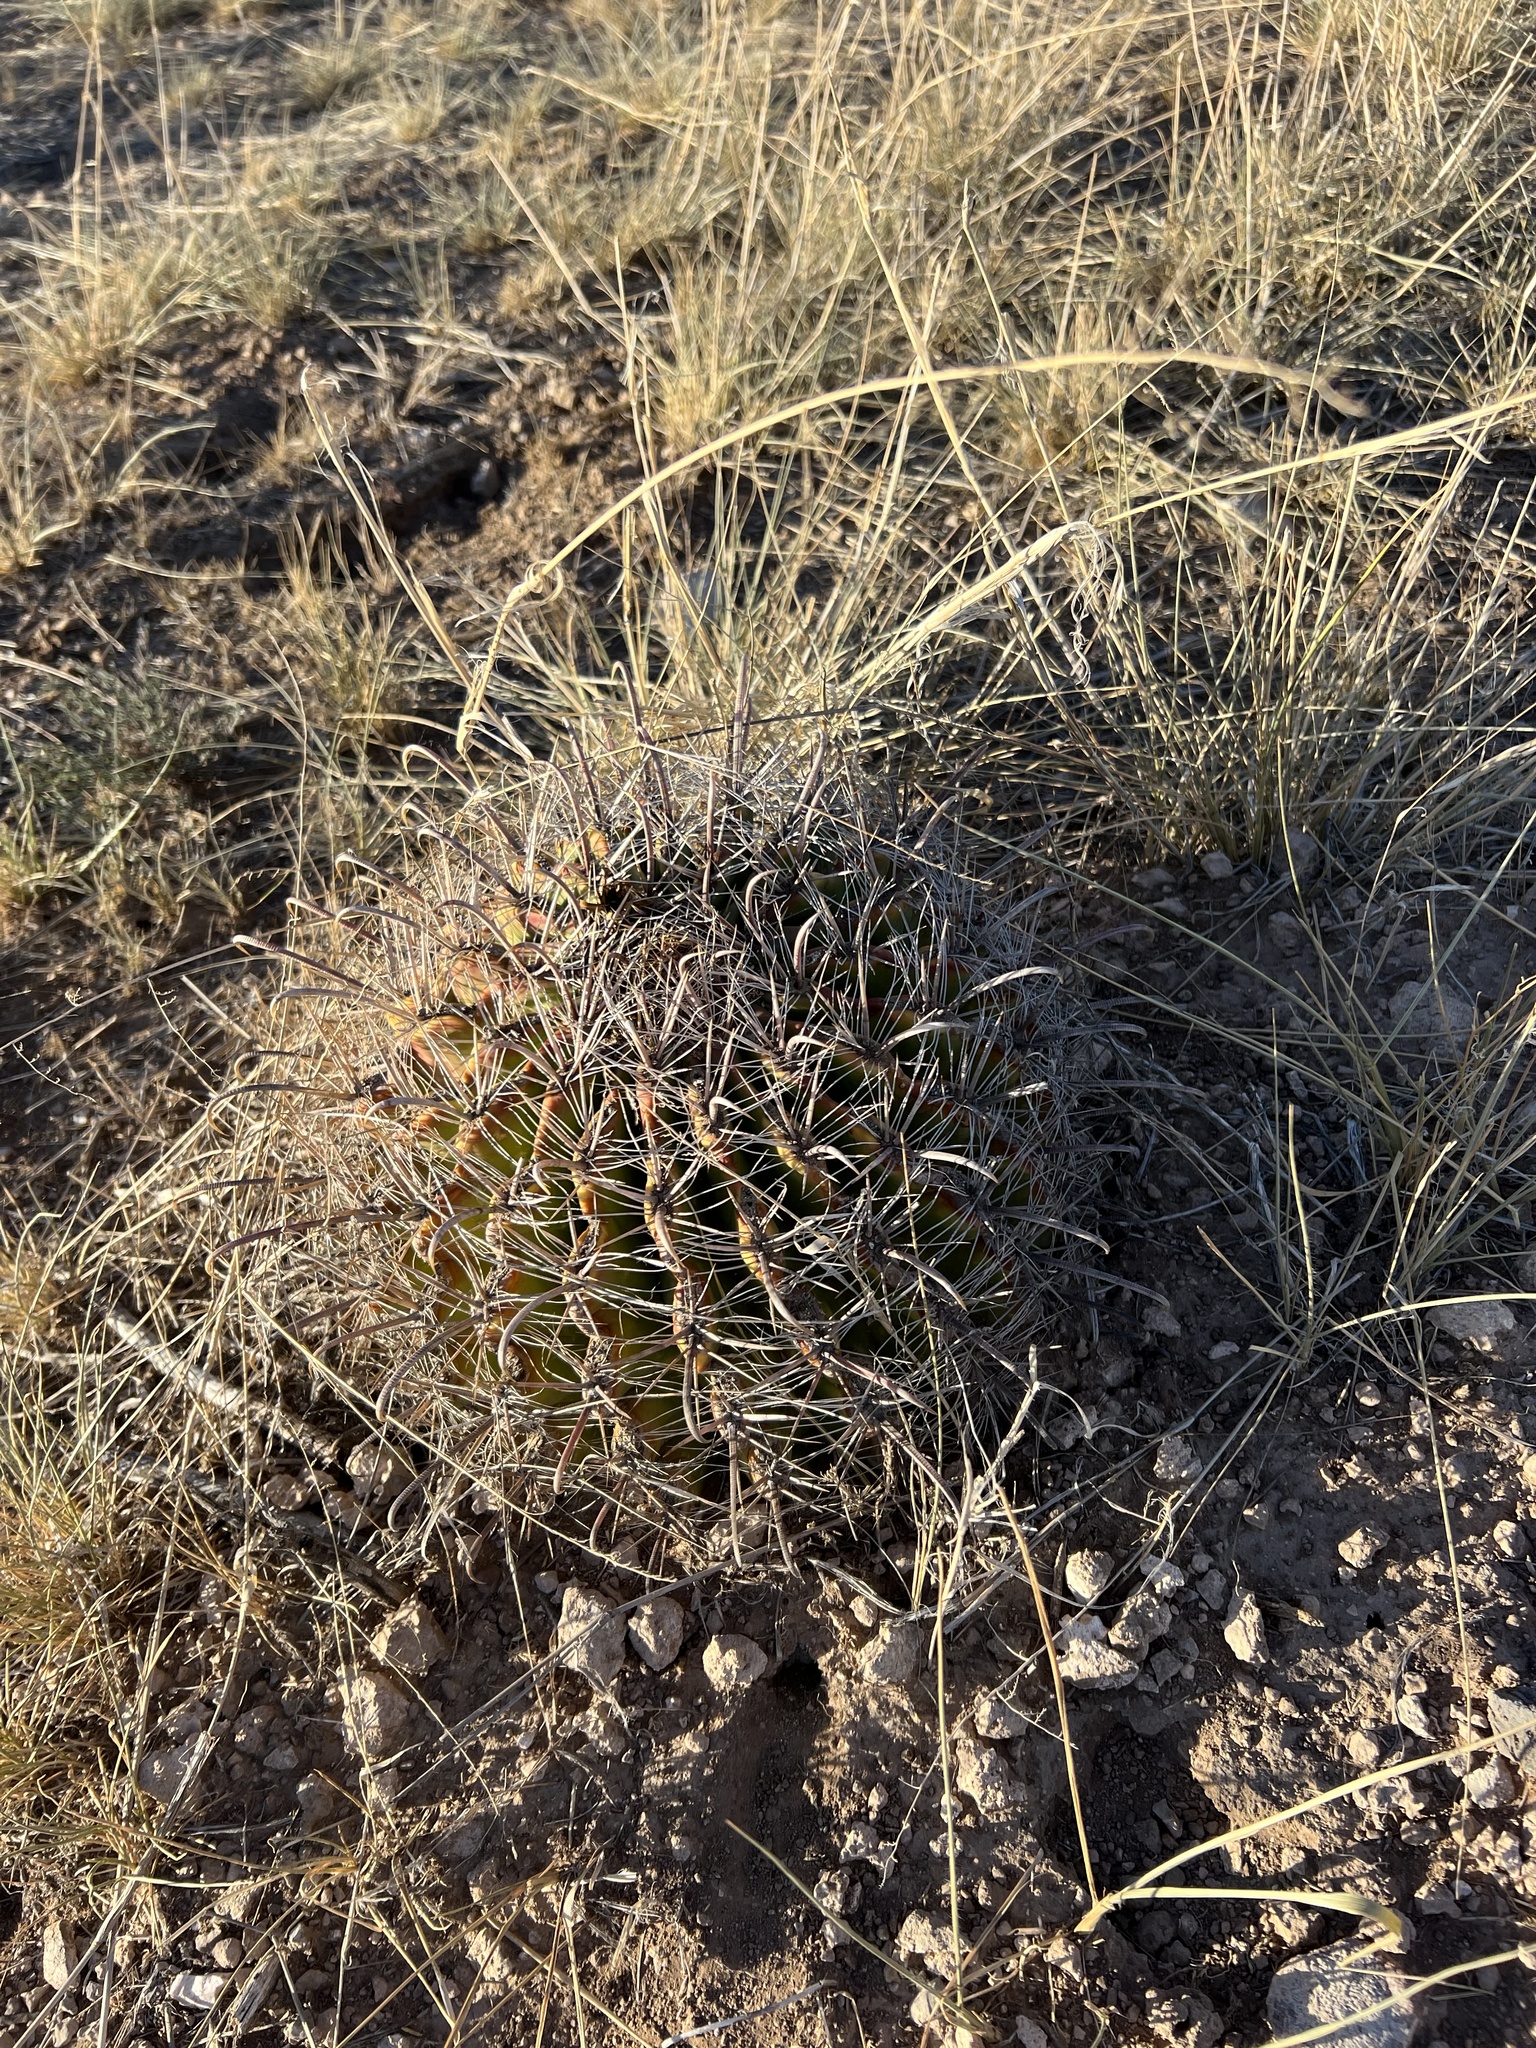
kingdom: Plantae
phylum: Tracheophyta
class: Magnoliopsida
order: Caryophyllales
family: Cactaceae
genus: Ferocactus
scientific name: Ferocactus wislizeni
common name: Candy barrel cactus
